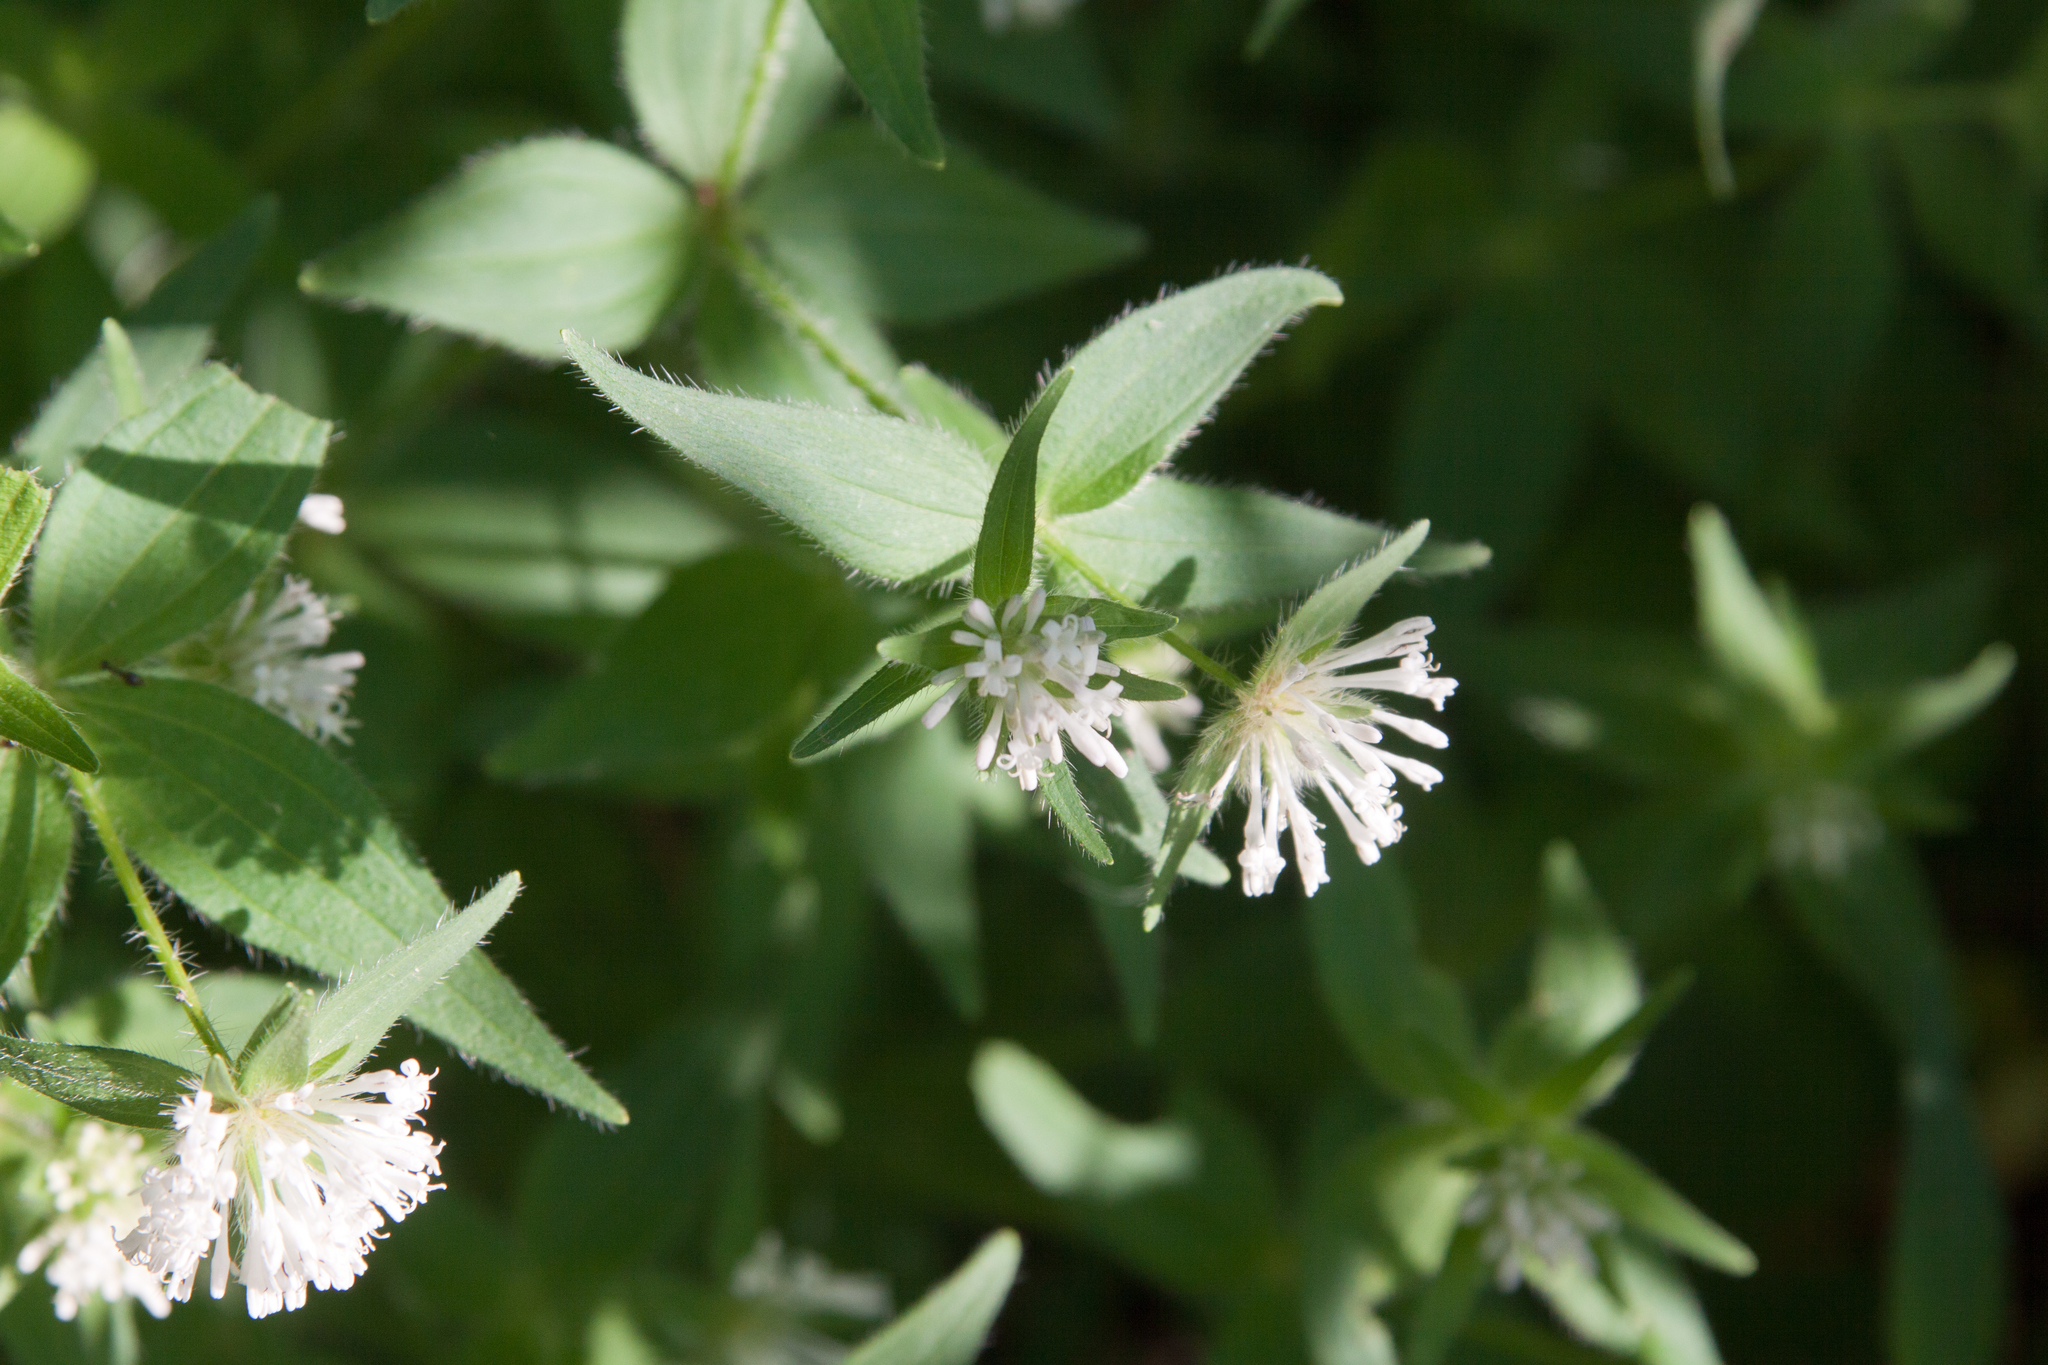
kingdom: Plantae
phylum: Tracheophyta
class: Magnoliopsida
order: Gentianales
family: Rubiaceae
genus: Asperula
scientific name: Asperula taurina
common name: Pink woodruff
